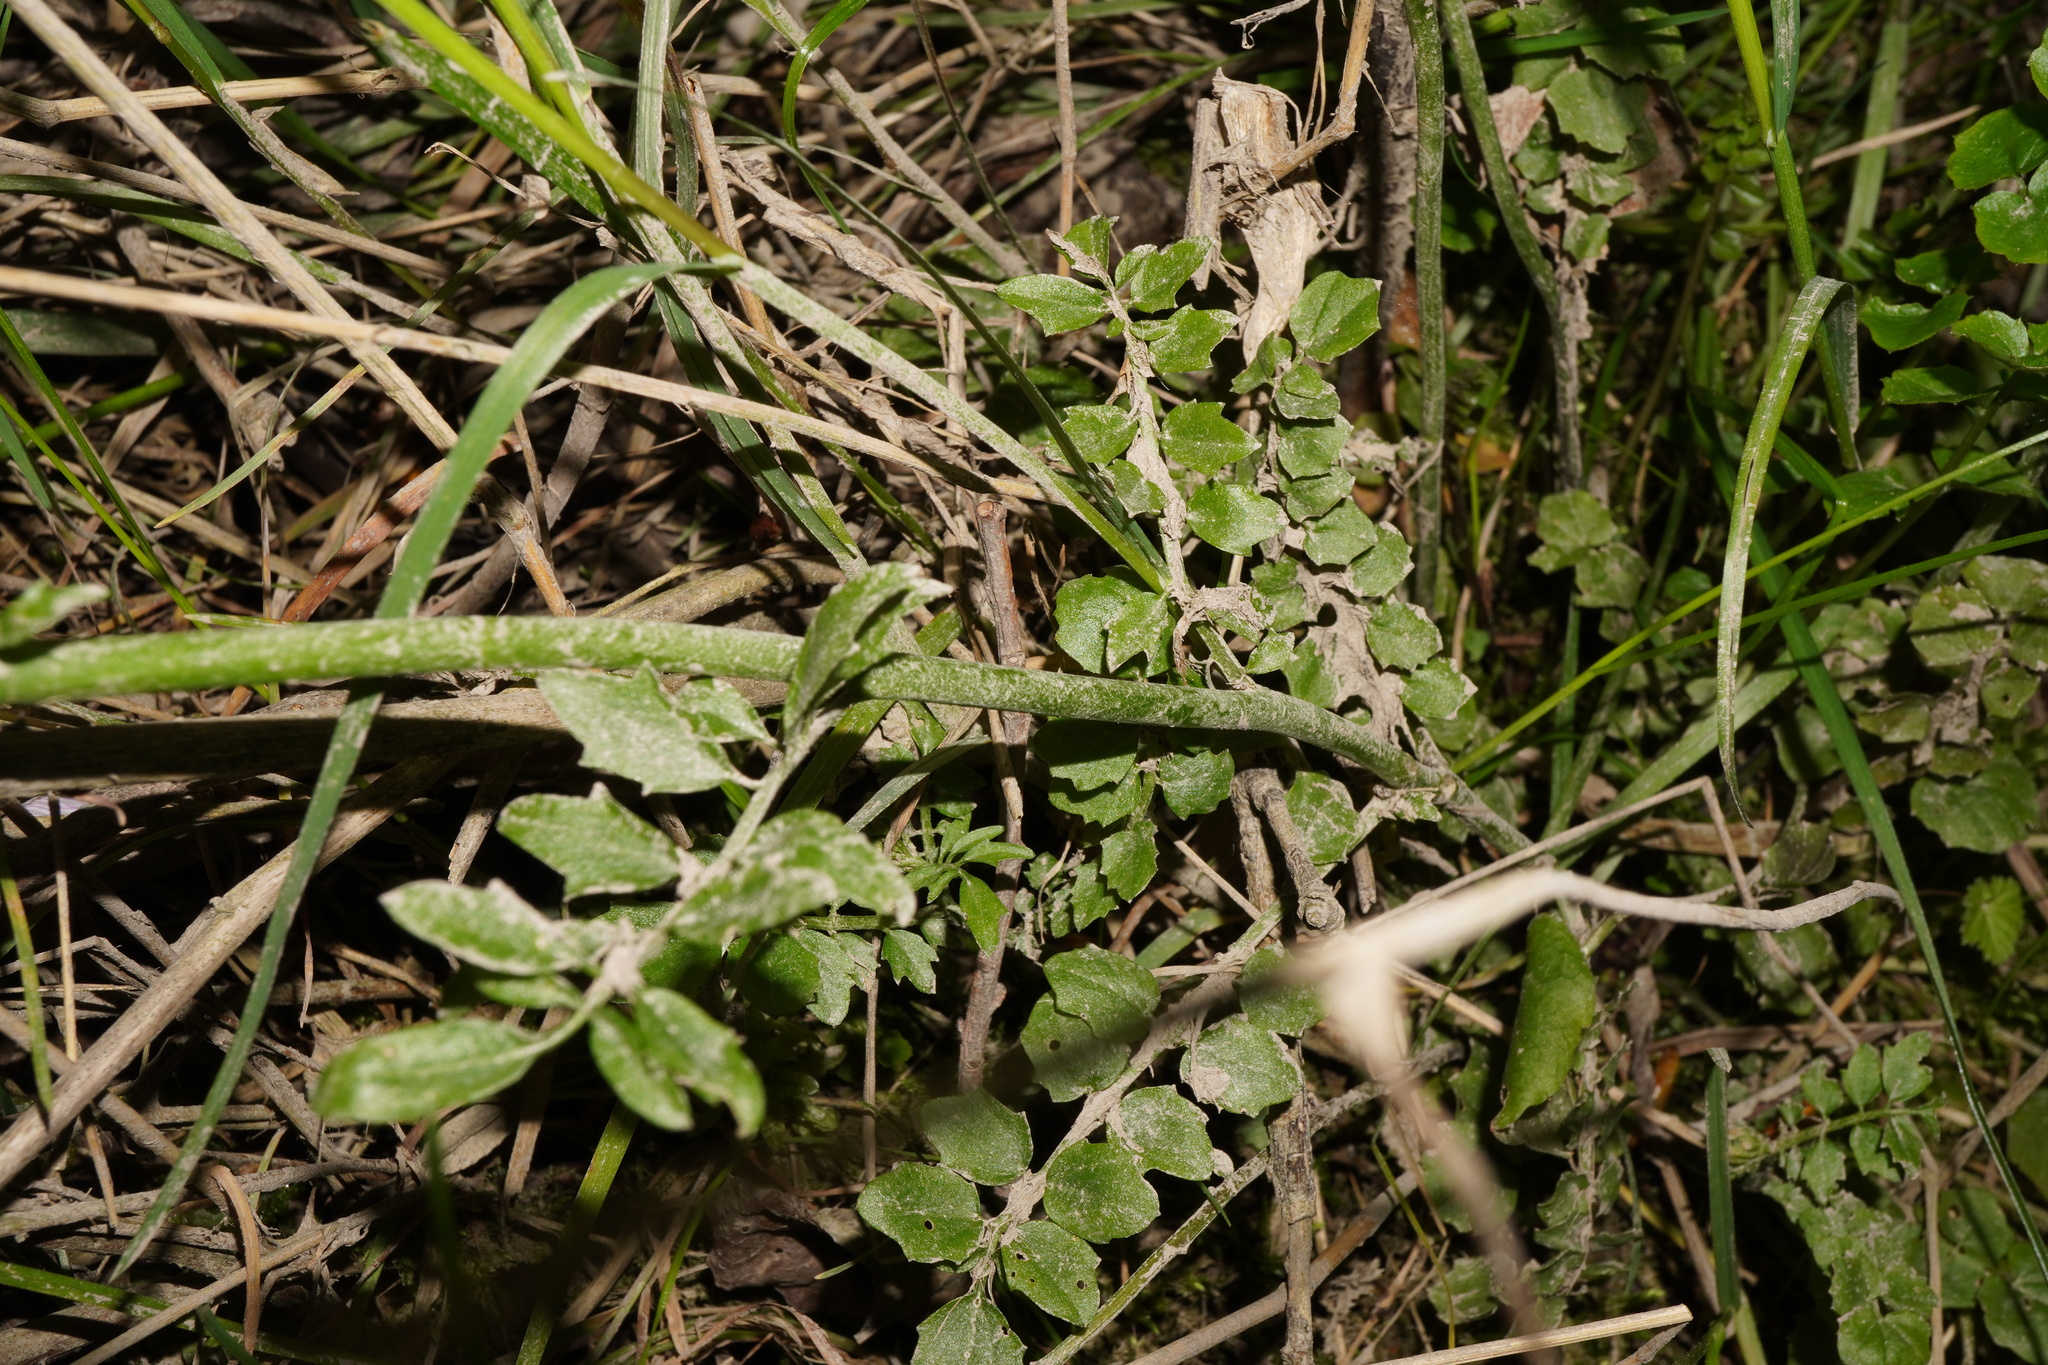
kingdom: Plantae
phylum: Tracheophyta
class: Magnoliopsida
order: Brassicales
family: Brassicaceae
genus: Cardamine
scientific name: Cardamine pratensis
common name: Cuckoo flower
